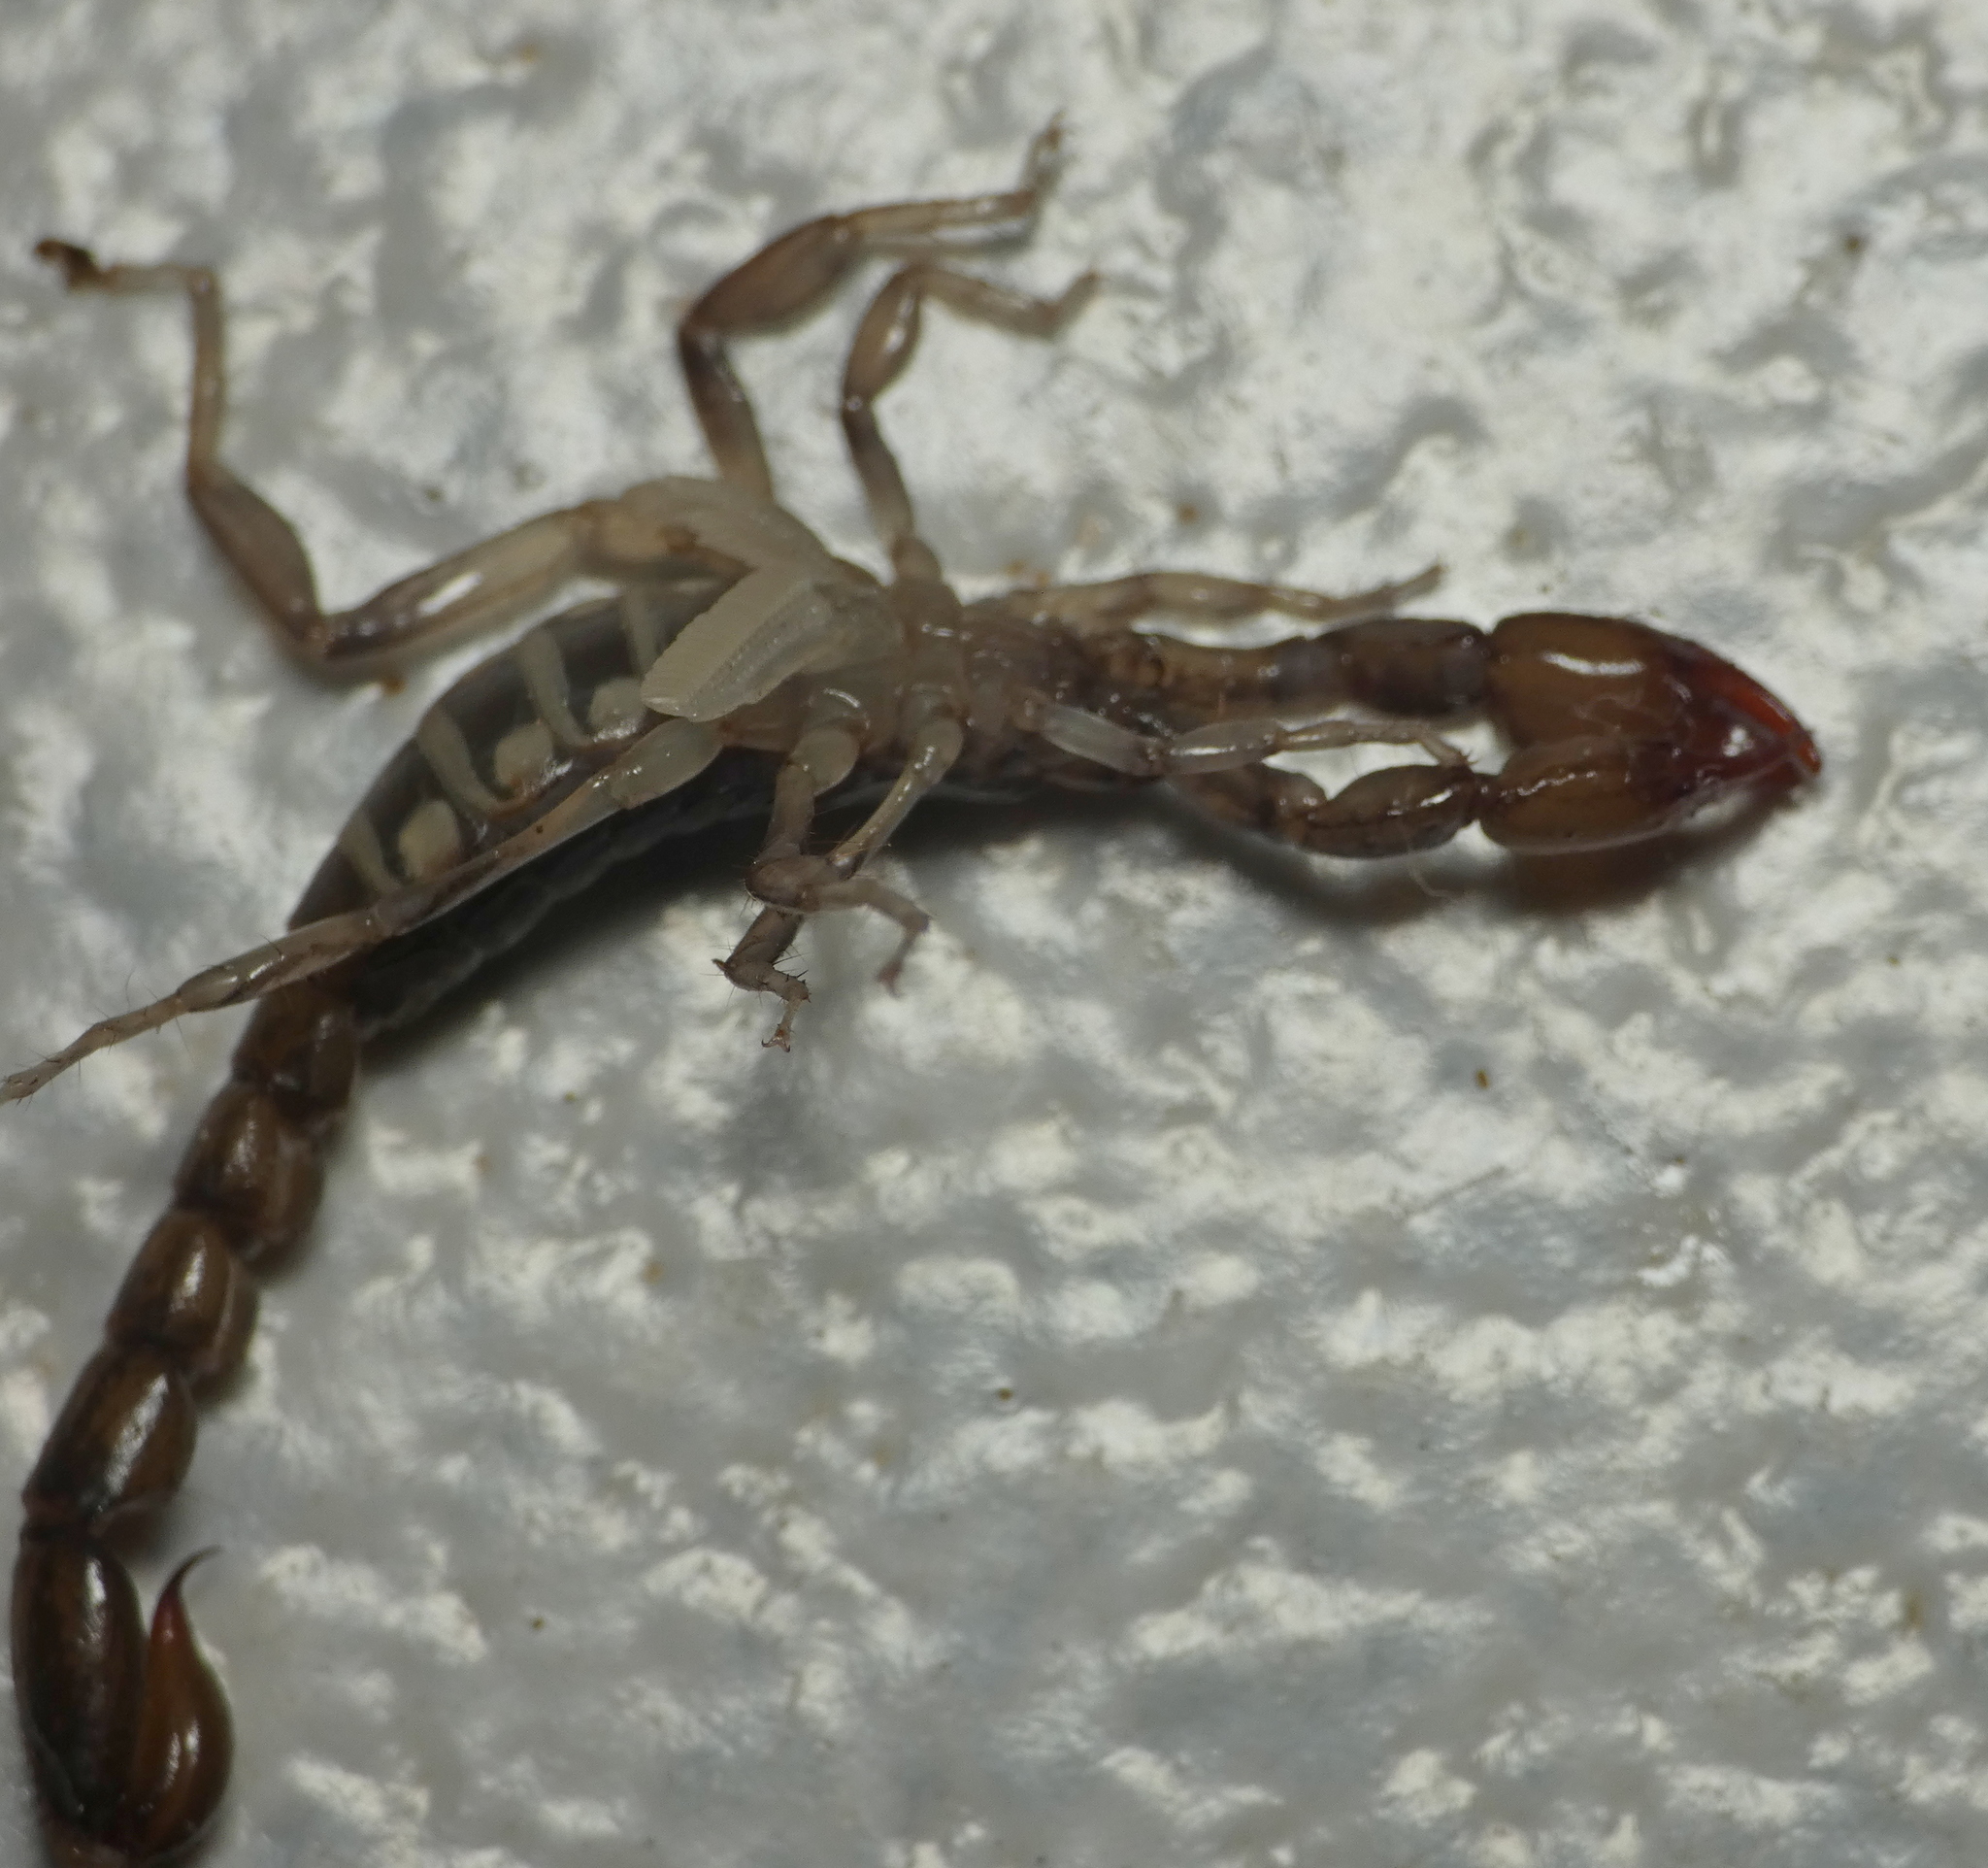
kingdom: Animalia
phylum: Arthropoda
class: Arachnida
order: Scorpiones
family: Bothriuridae
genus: Bothriurus
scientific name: Bothriurus asper
